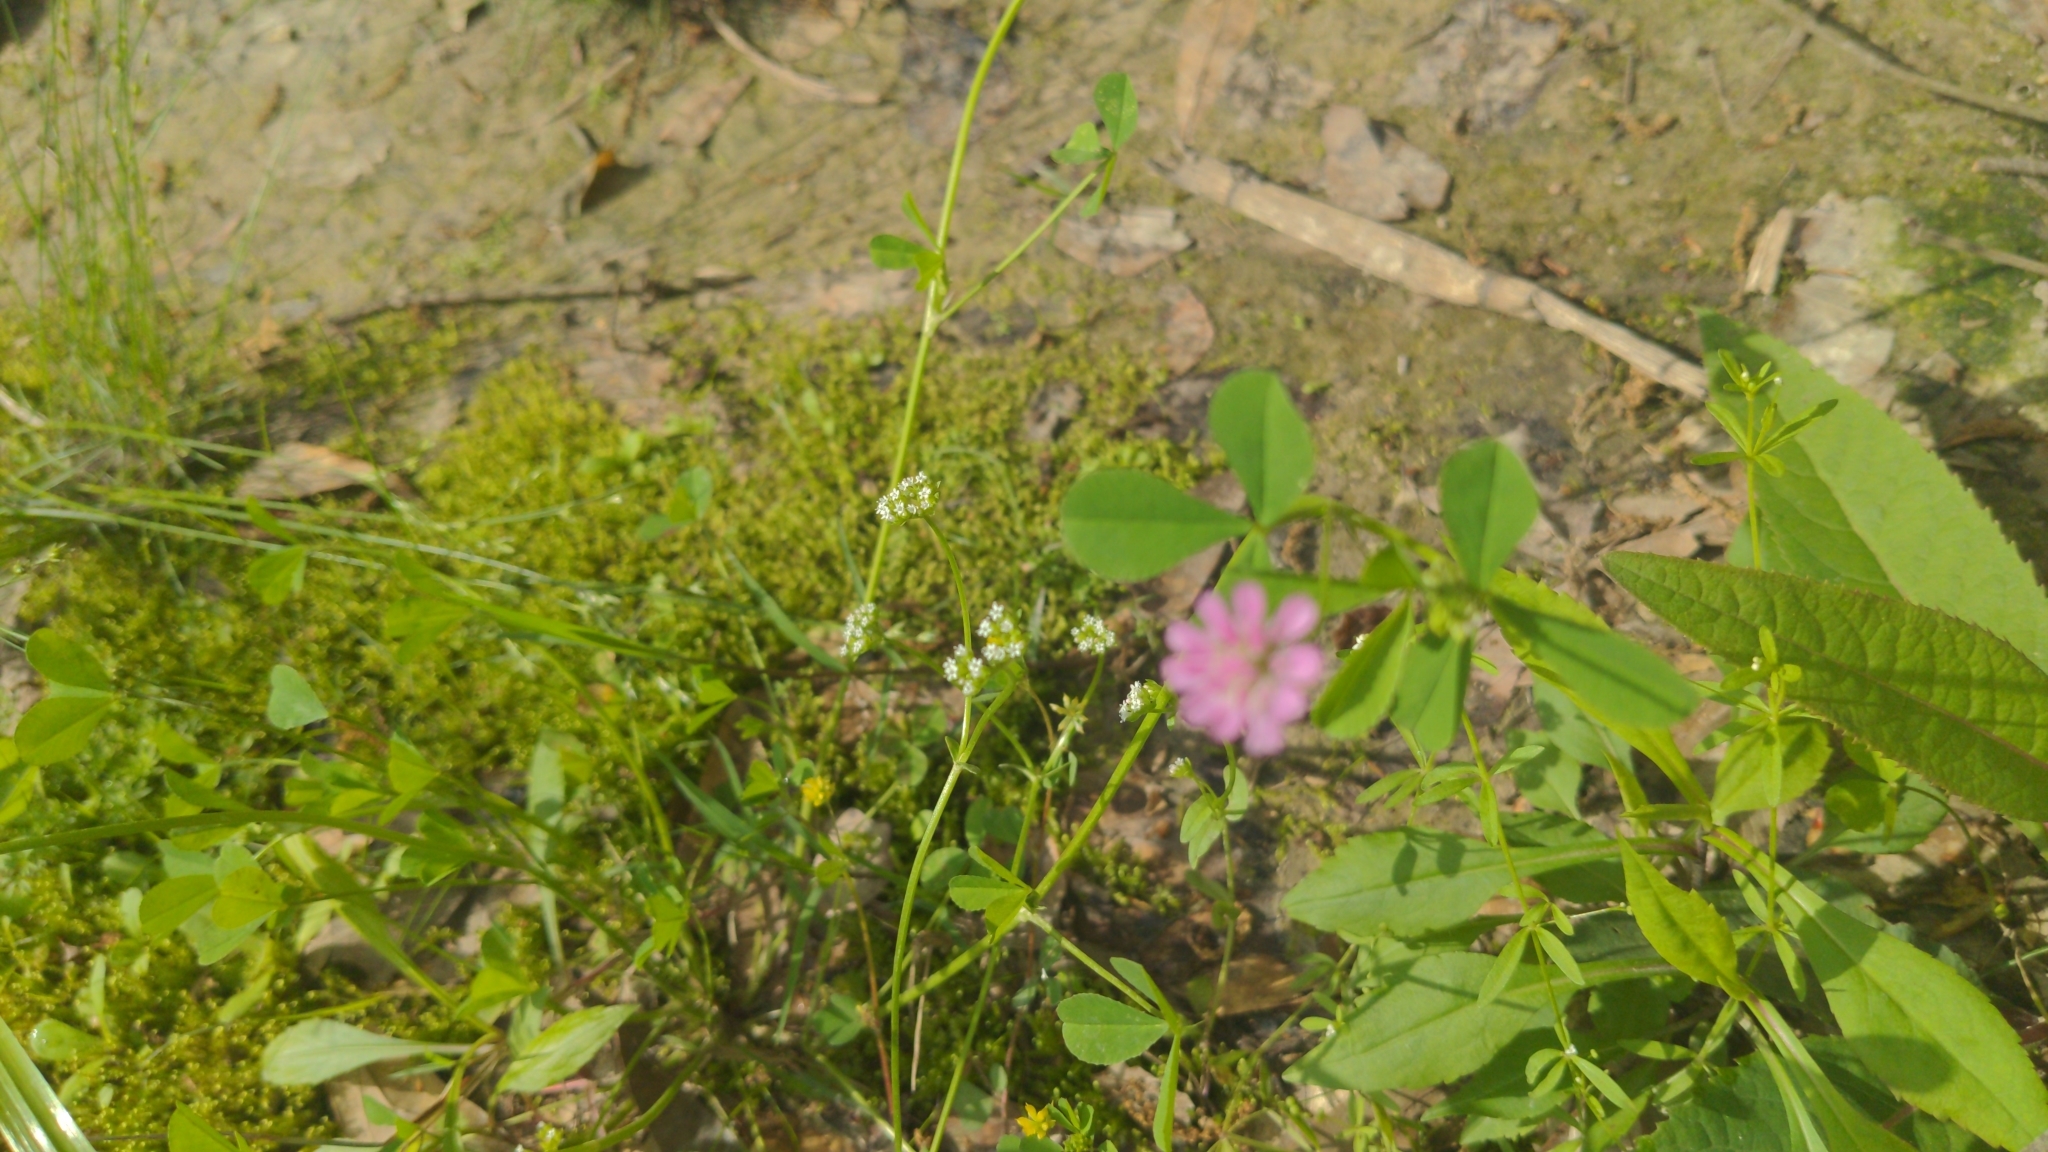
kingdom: Plantae
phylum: Tracheophyta
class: Magnoliopsida
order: Fabales
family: Fabaceae
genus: Trifolium
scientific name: Trifolium resupinatum
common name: Reversed clover
